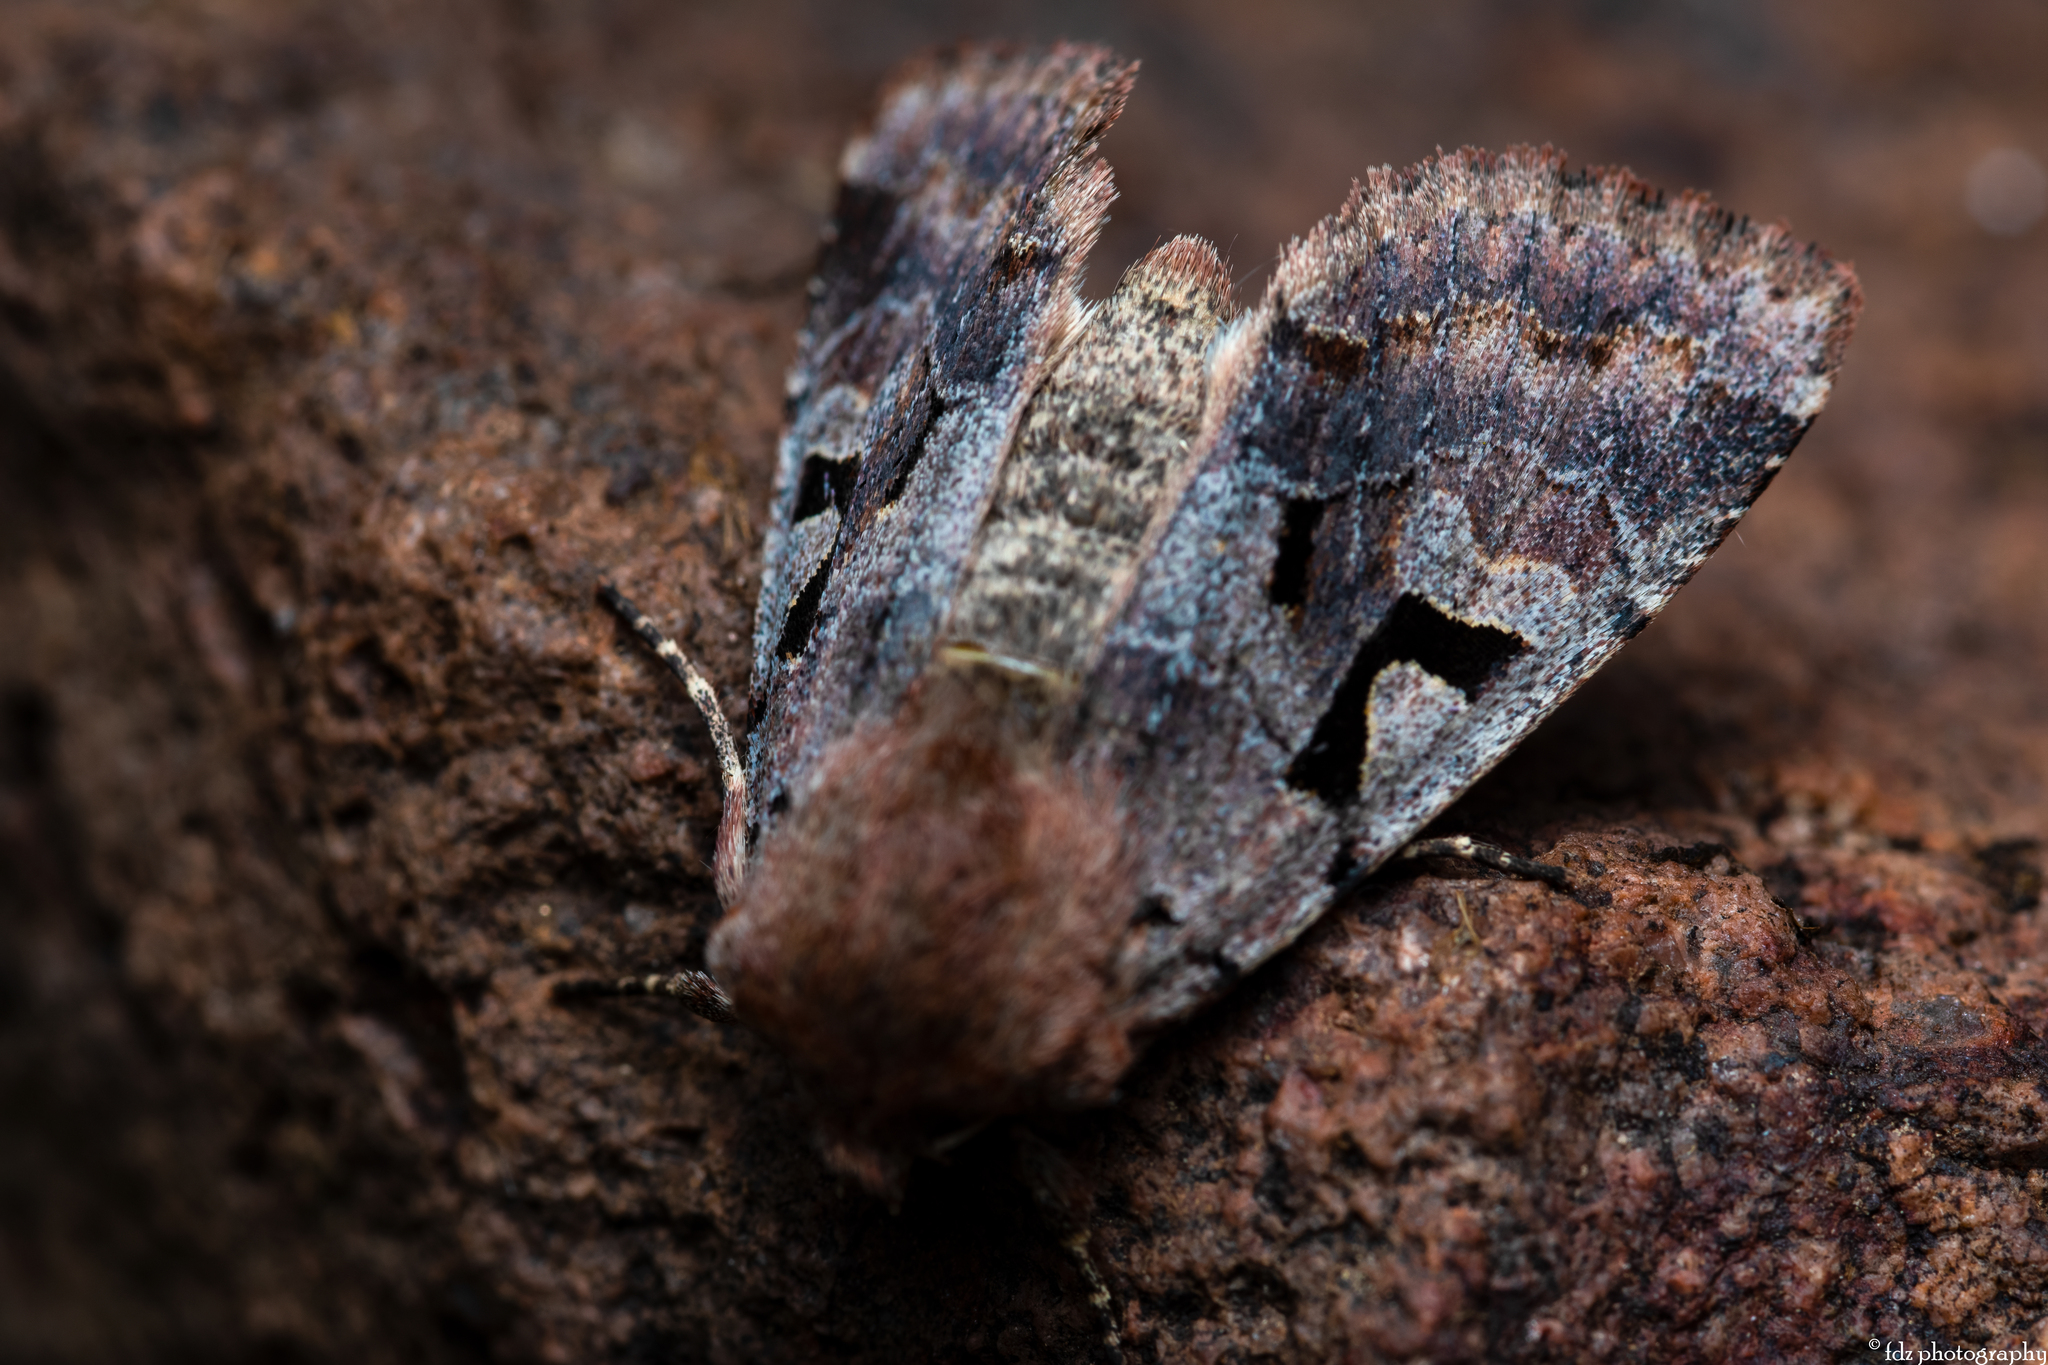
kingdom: Animalia
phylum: Arthropoda
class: Insecta
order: Lepidoptera
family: Noctuidae
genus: Orthosia
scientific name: Orthosia gothica
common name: Hebrew character
